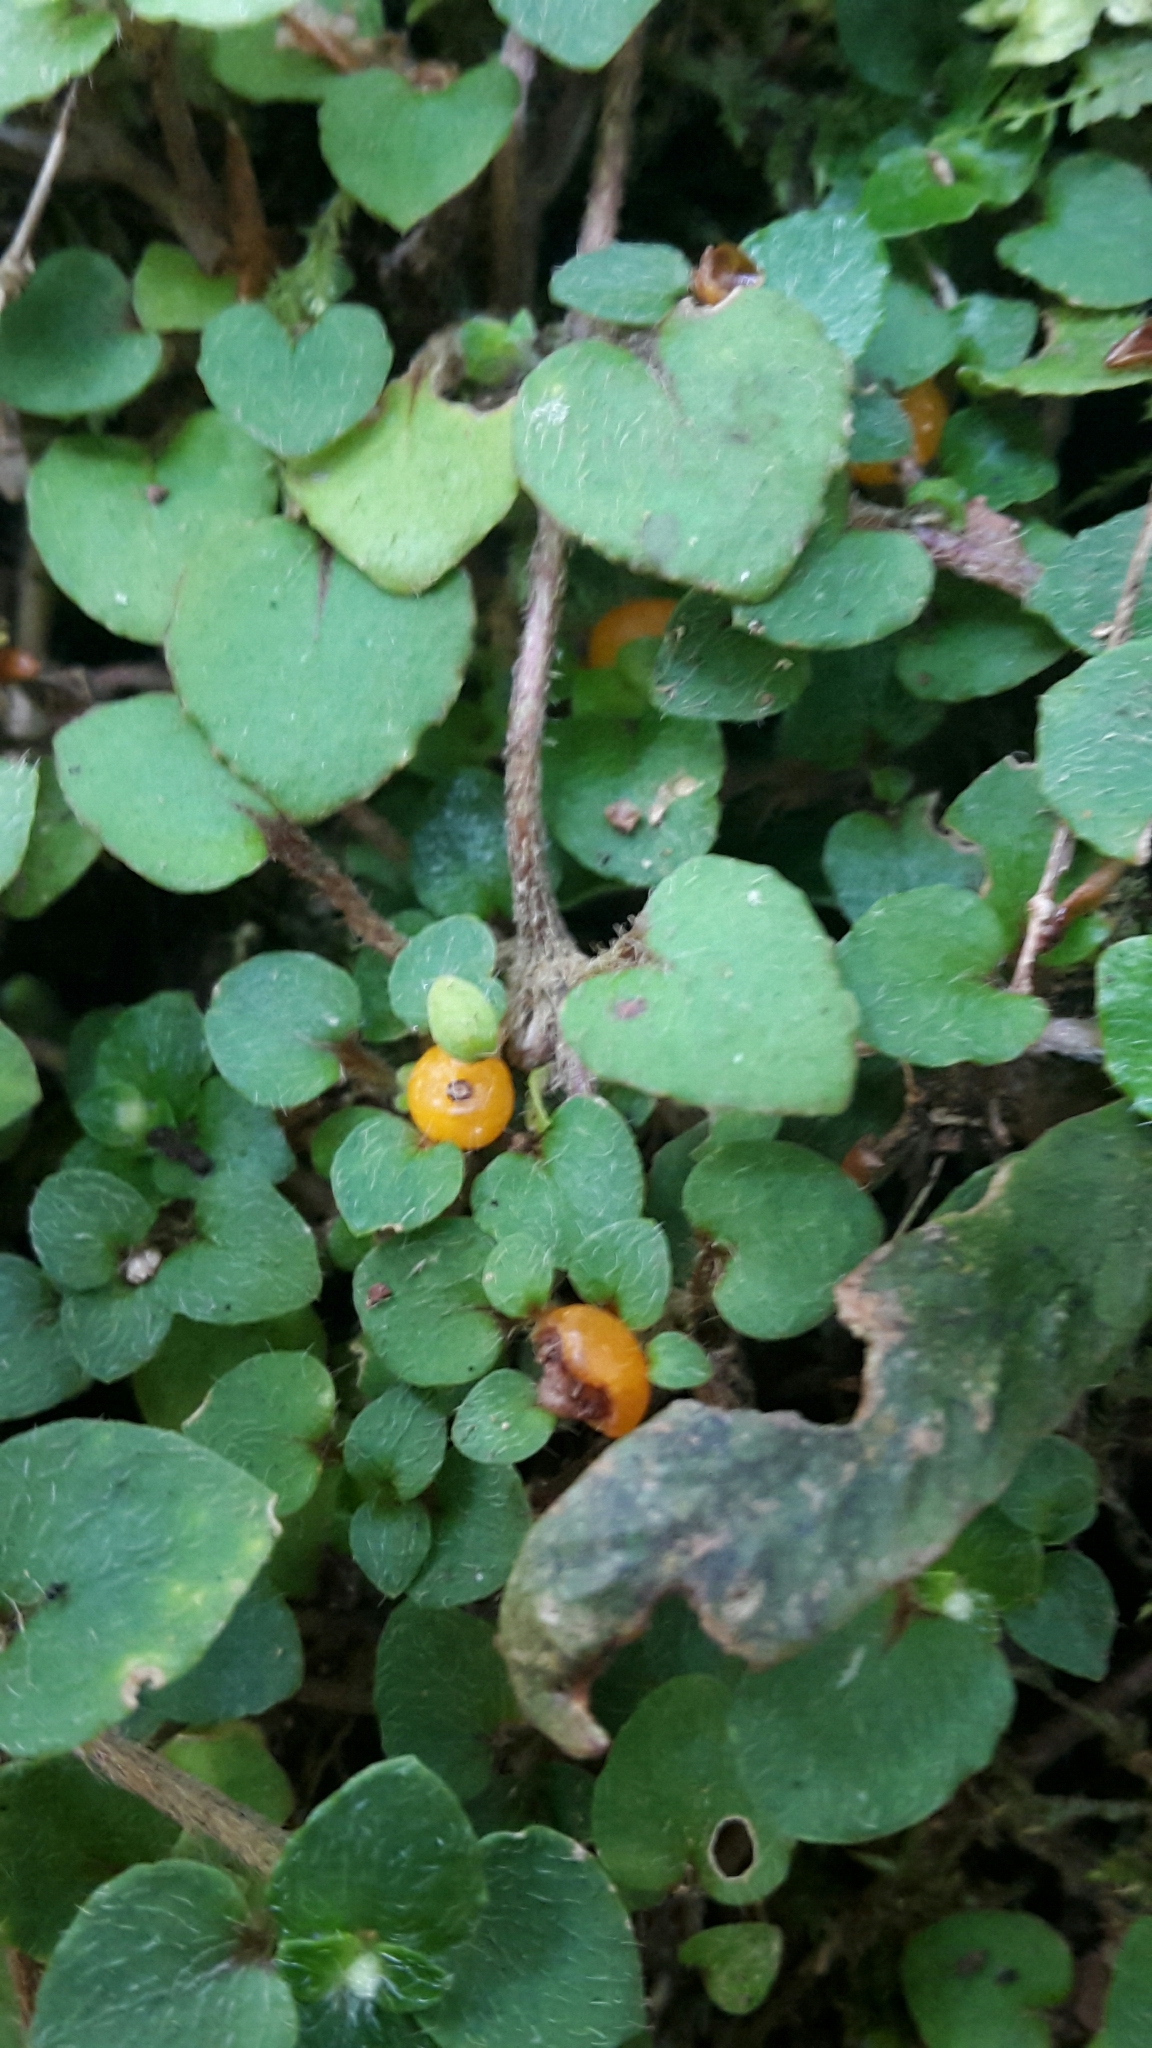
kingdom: Plantae
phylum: Tracheophyta
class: Magnoliopsida
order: Gentianales
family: Rubiaceae
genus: Nertera
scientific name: Nertera villosa
